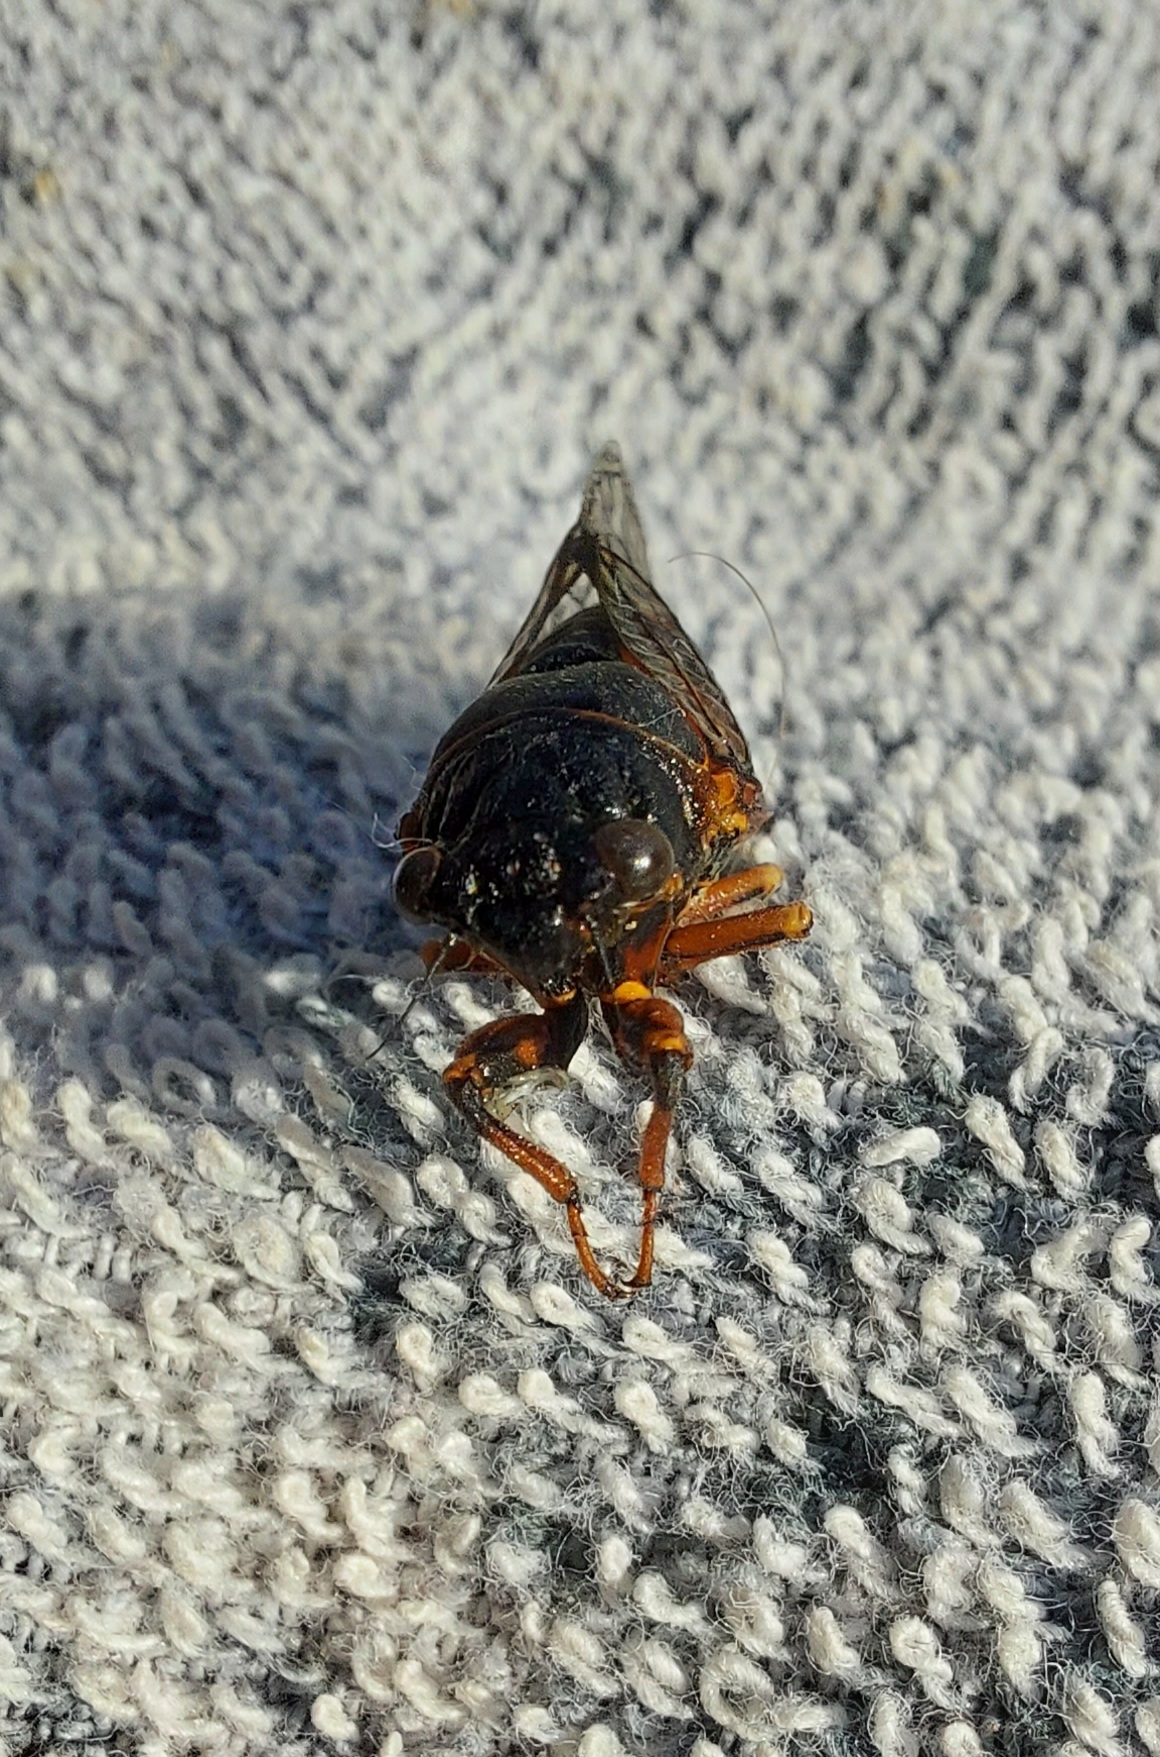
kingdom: Animalia
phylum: Arthropoda
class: Insecta
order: Hemiptera
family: Cicadidae
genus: Cicadetta
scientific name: Cicadetta montana
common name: New forest cicada
